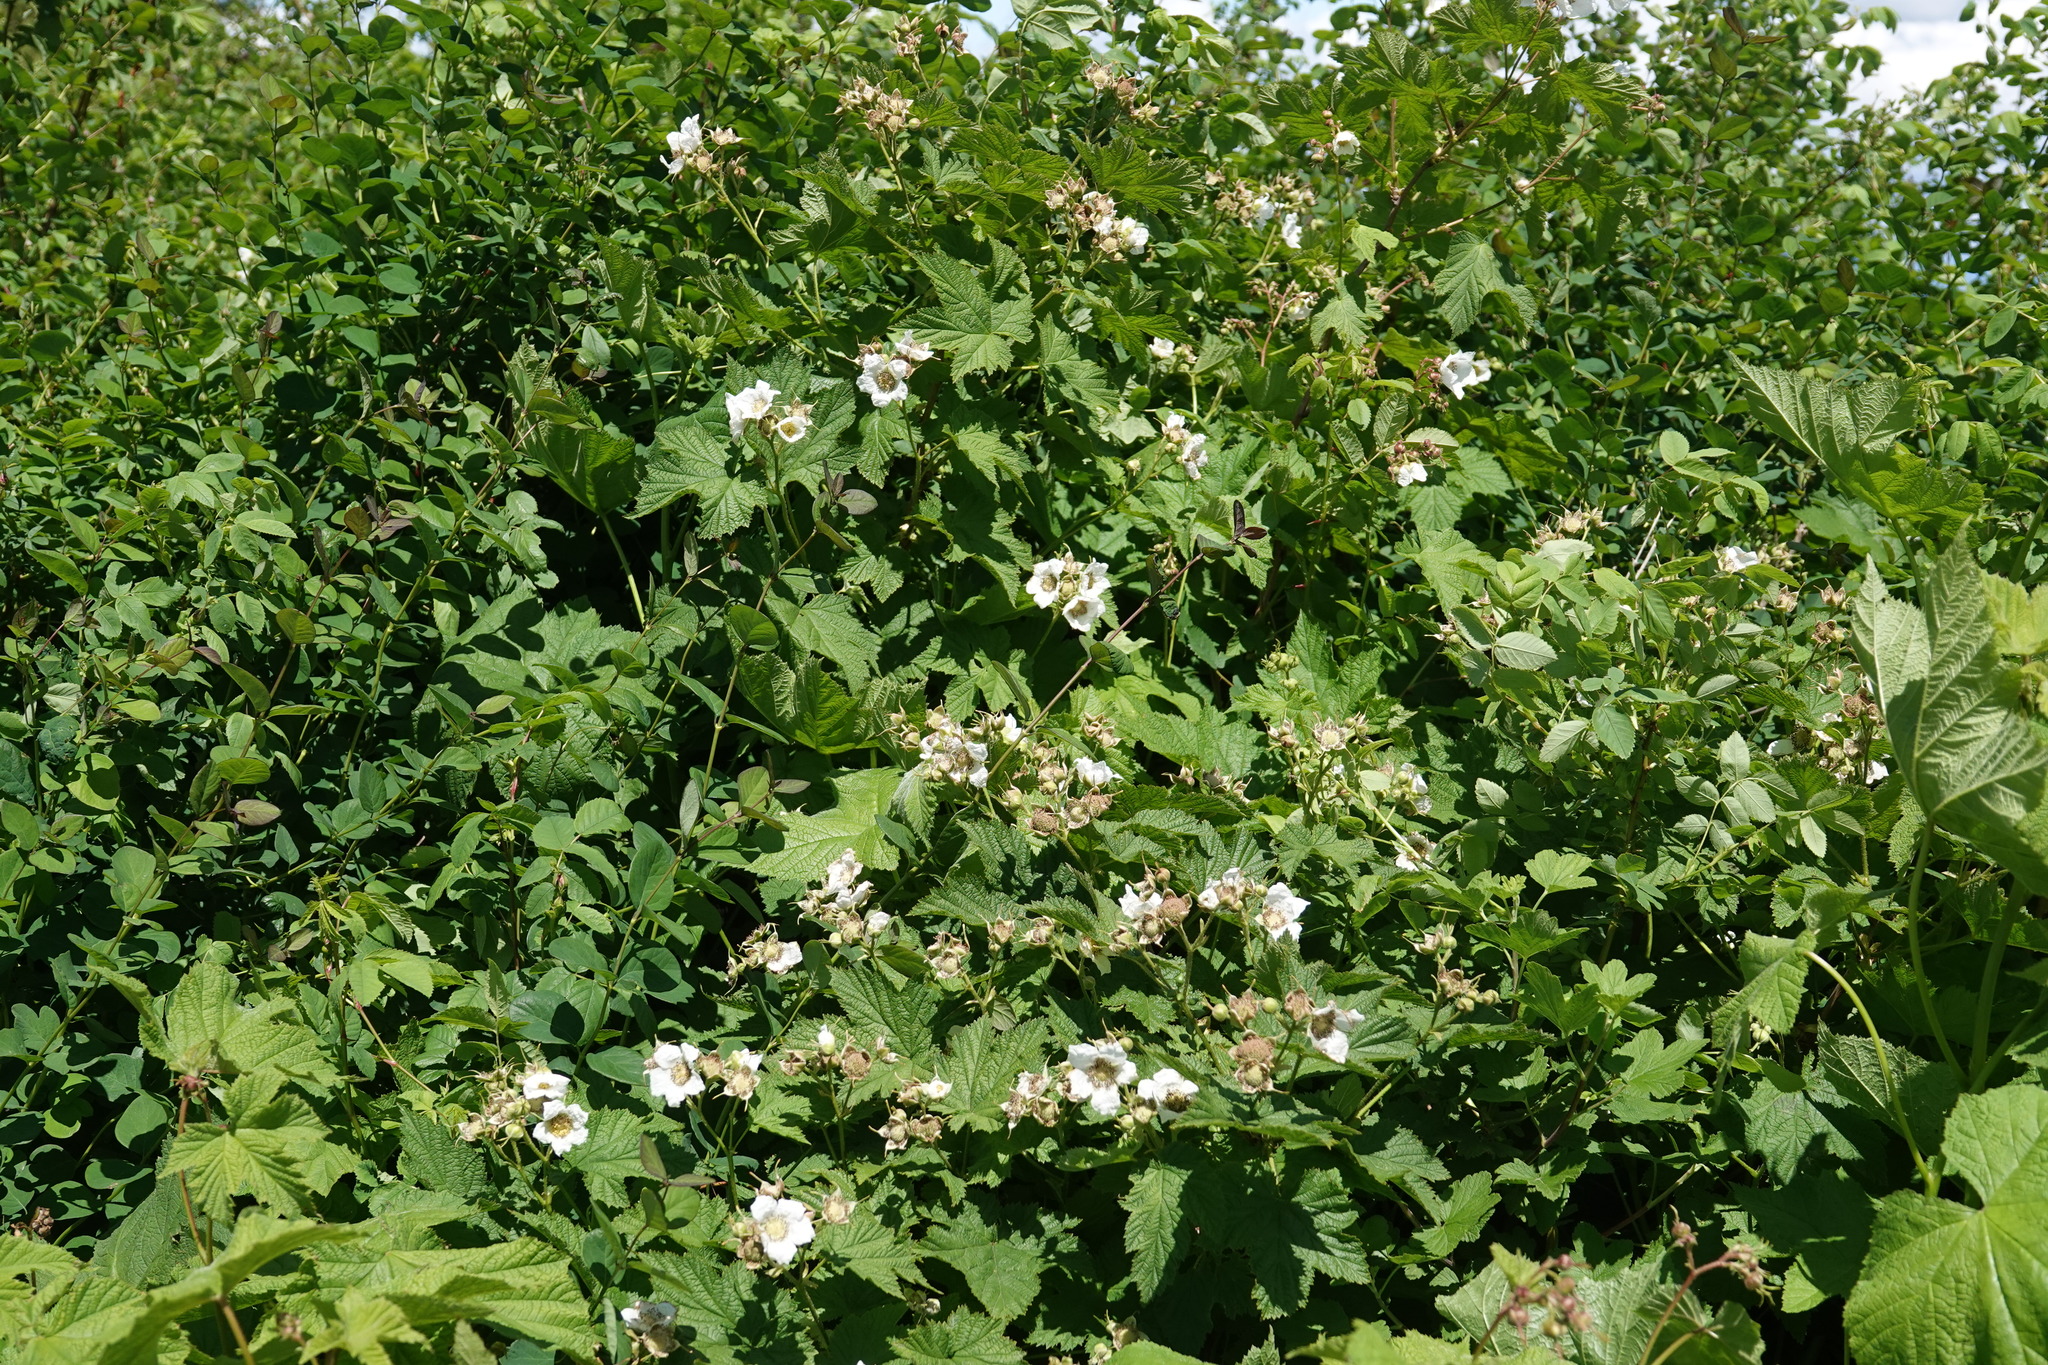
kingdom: Plantae
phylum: Tracheophyta
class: Magnoliopsida
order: Rosales
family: Rosaceae
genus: Rubus
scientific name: Rubus parviflorus
